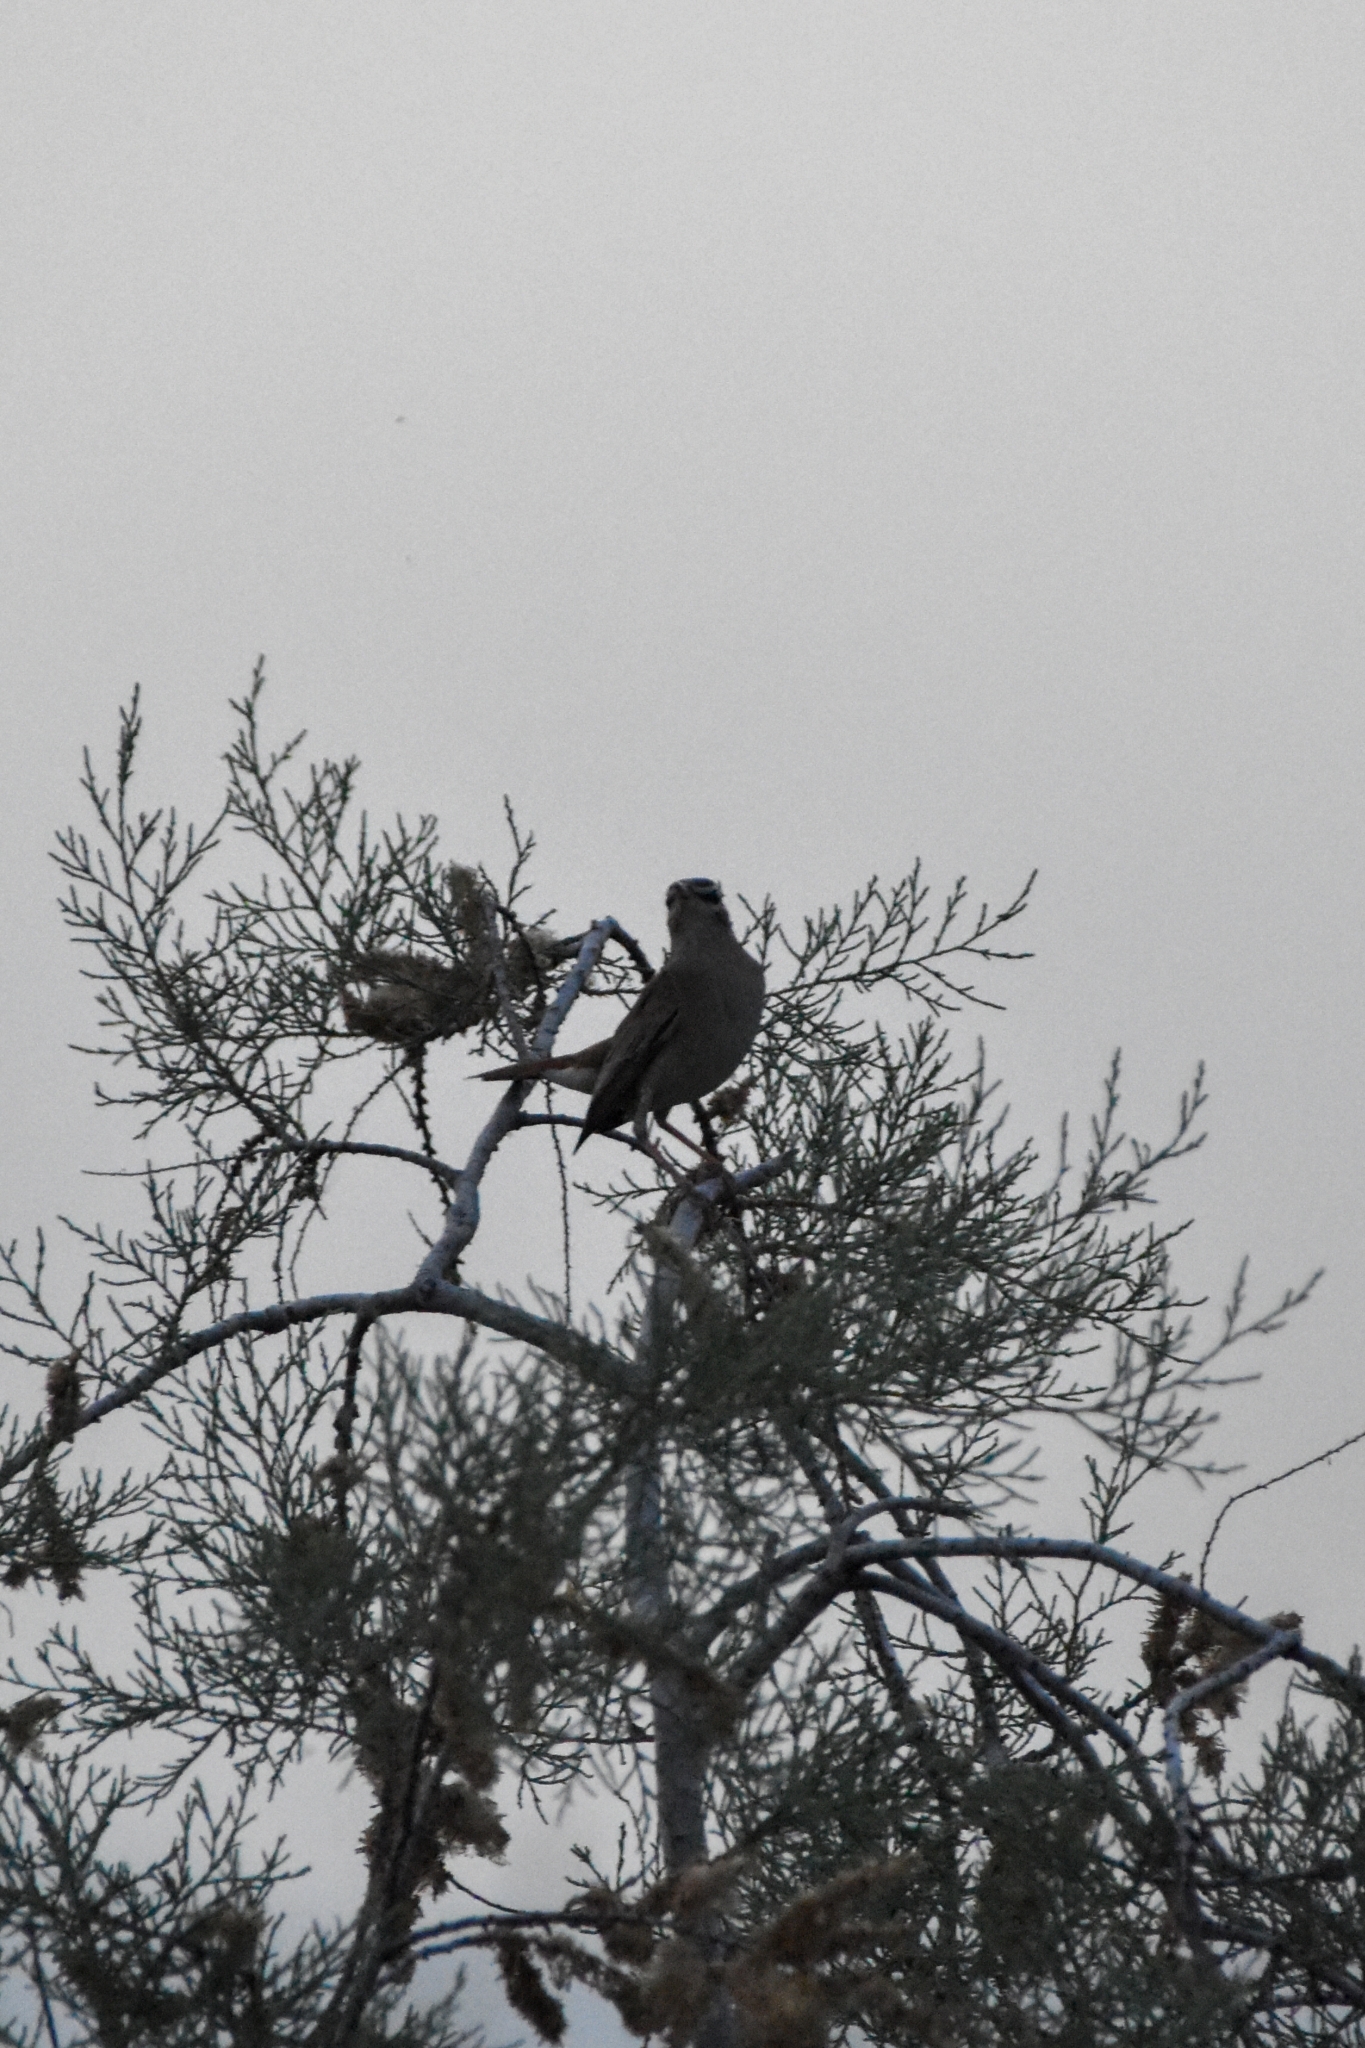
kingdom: Animalia
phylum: Chordata
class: Aves
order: Passeriformes
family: Muscicapidae
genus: Erythropygia
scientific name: Erythropygia galactotes
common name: Rufous-tailed scrub robin
